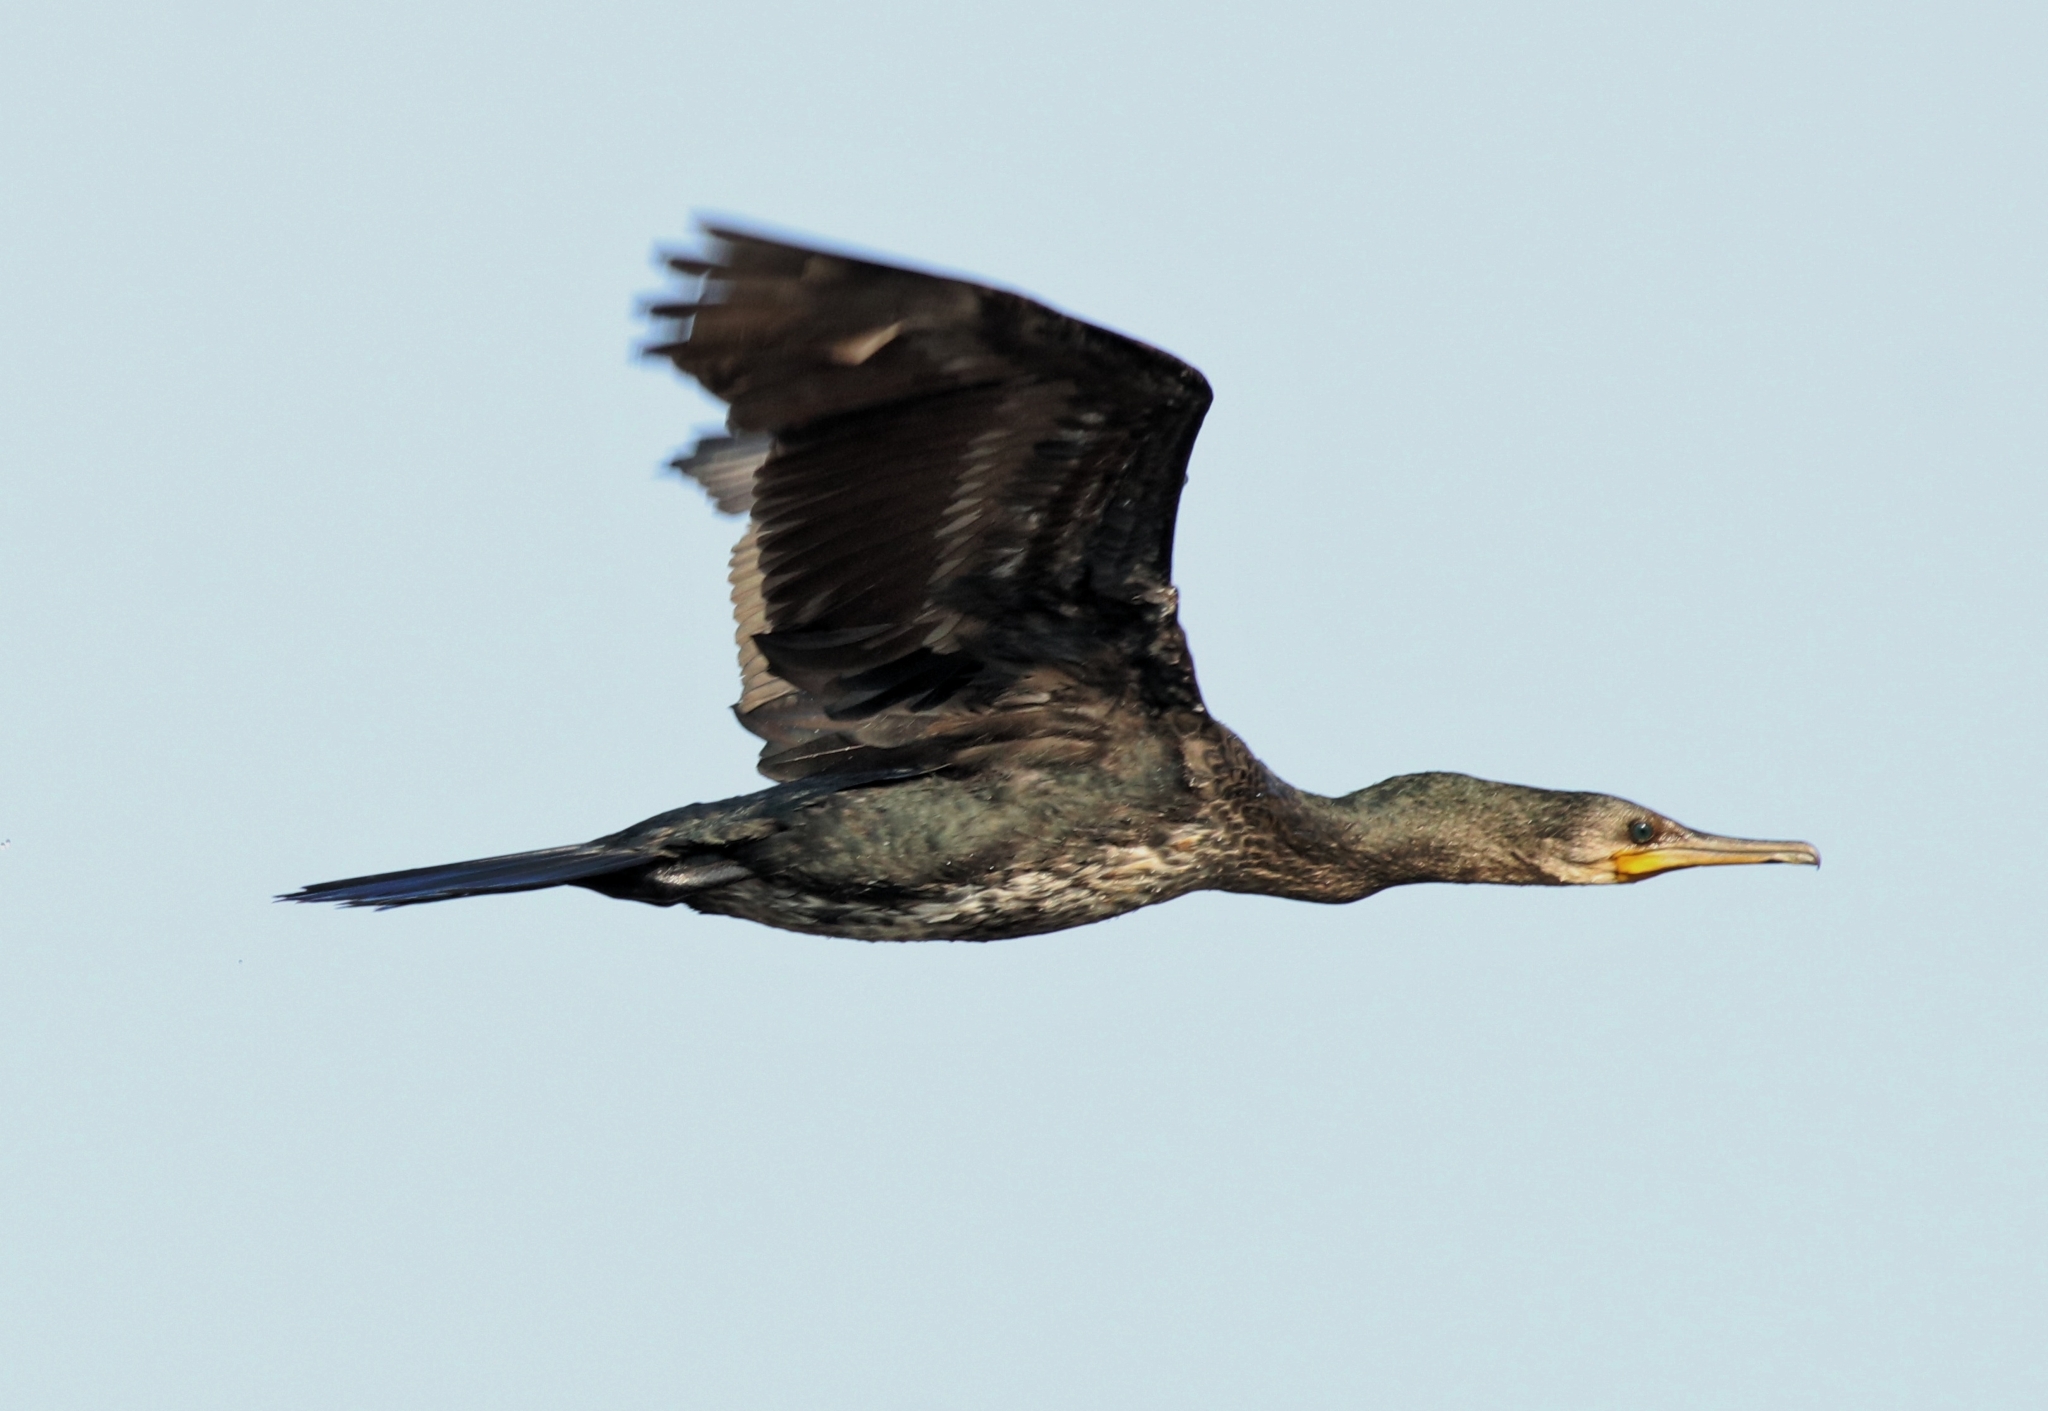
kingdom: Animalia
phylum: Chordata
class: Aves
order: Suliformes
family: Phalacrocoracidae
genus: Phalacrocorax
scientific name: Phalacrocorax fuscicollis
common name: Indian cormorant
